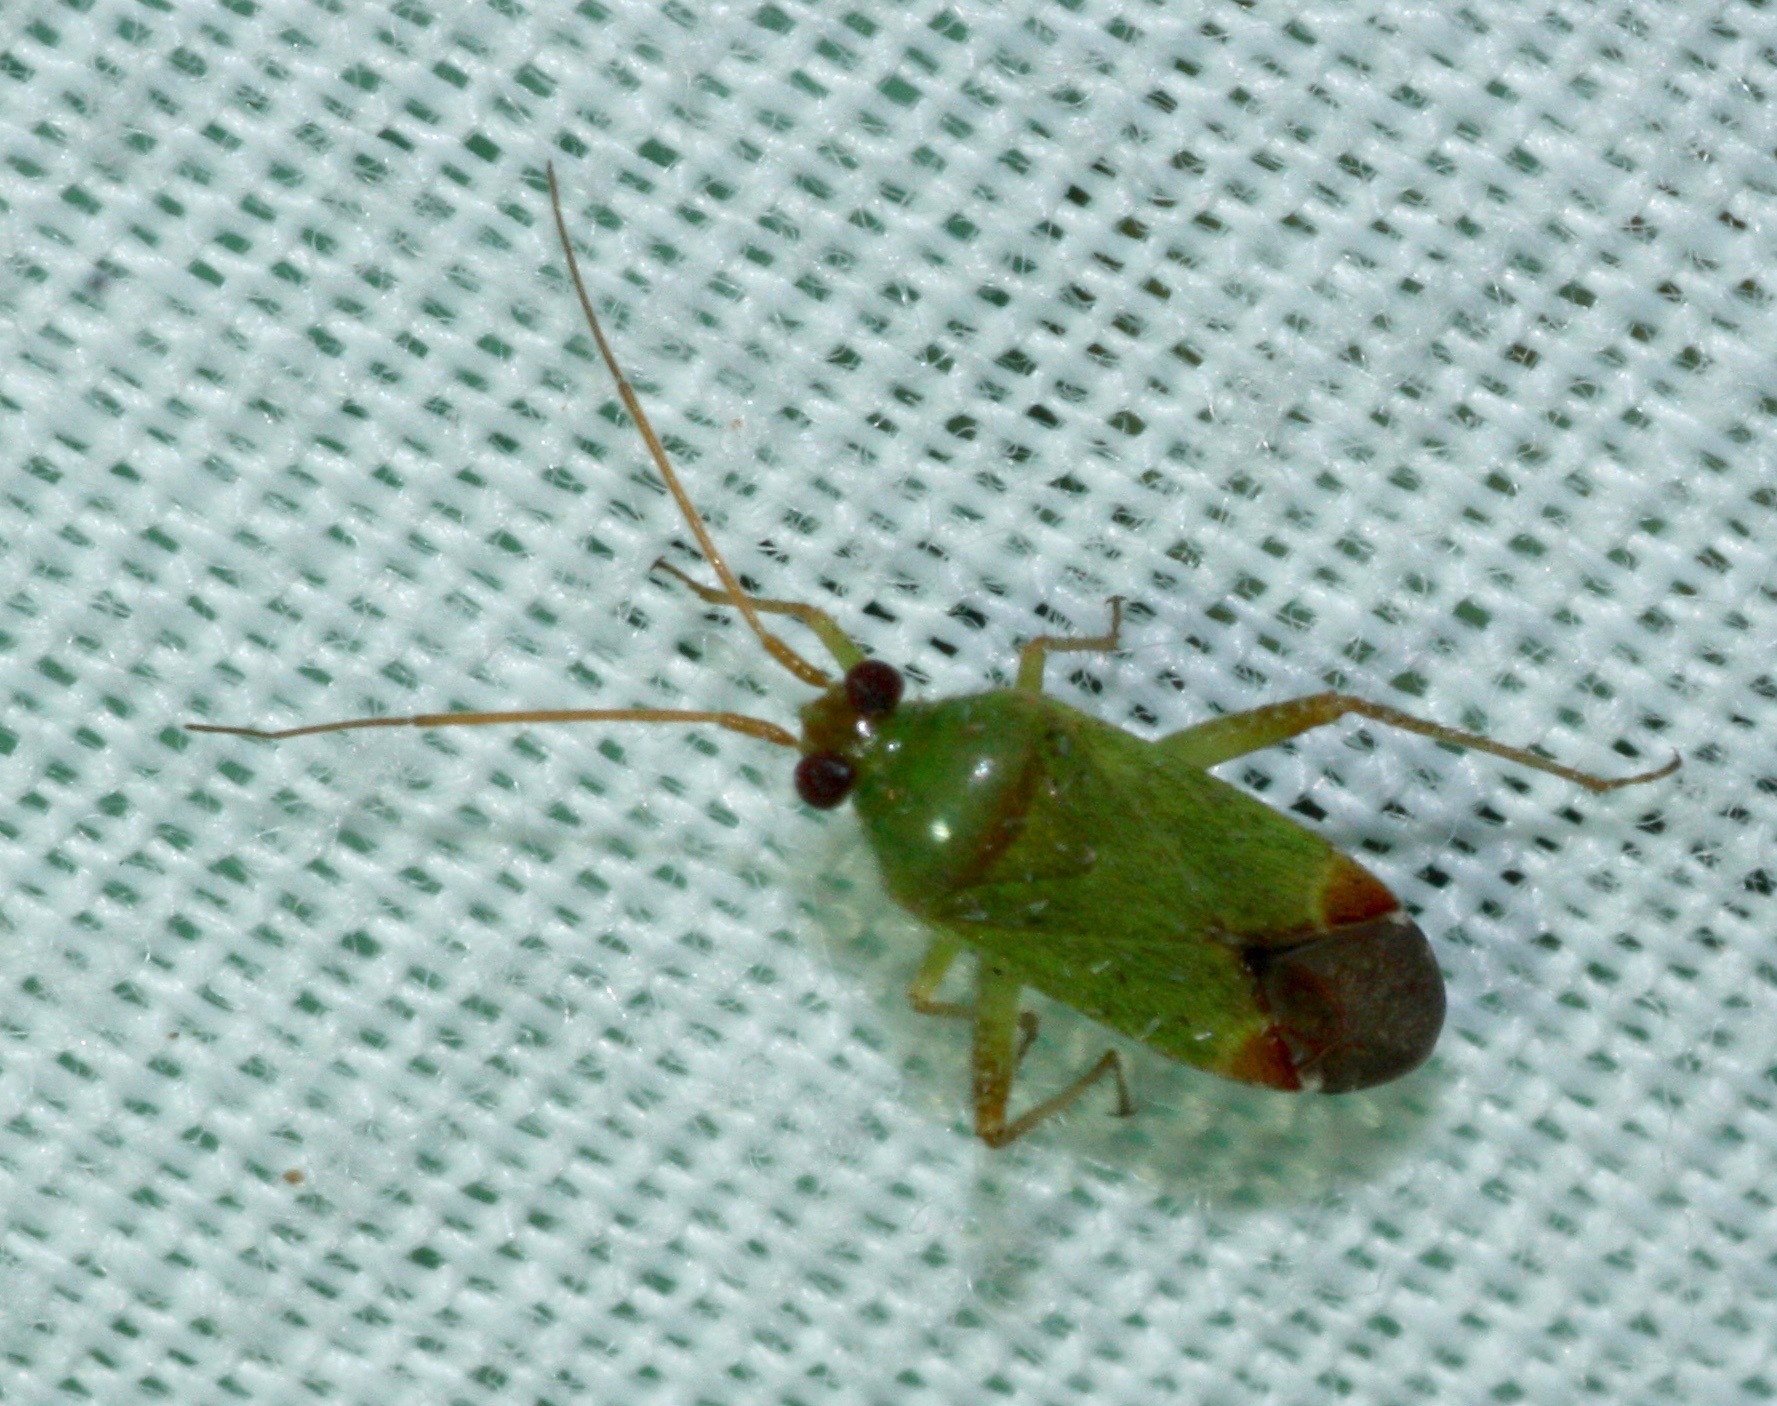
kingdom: Animalia
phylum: Arthropoda
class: Insecta
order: Hemiptera
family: Miridae
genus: Phytocoris
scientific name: Phytocoris vanduzeei
